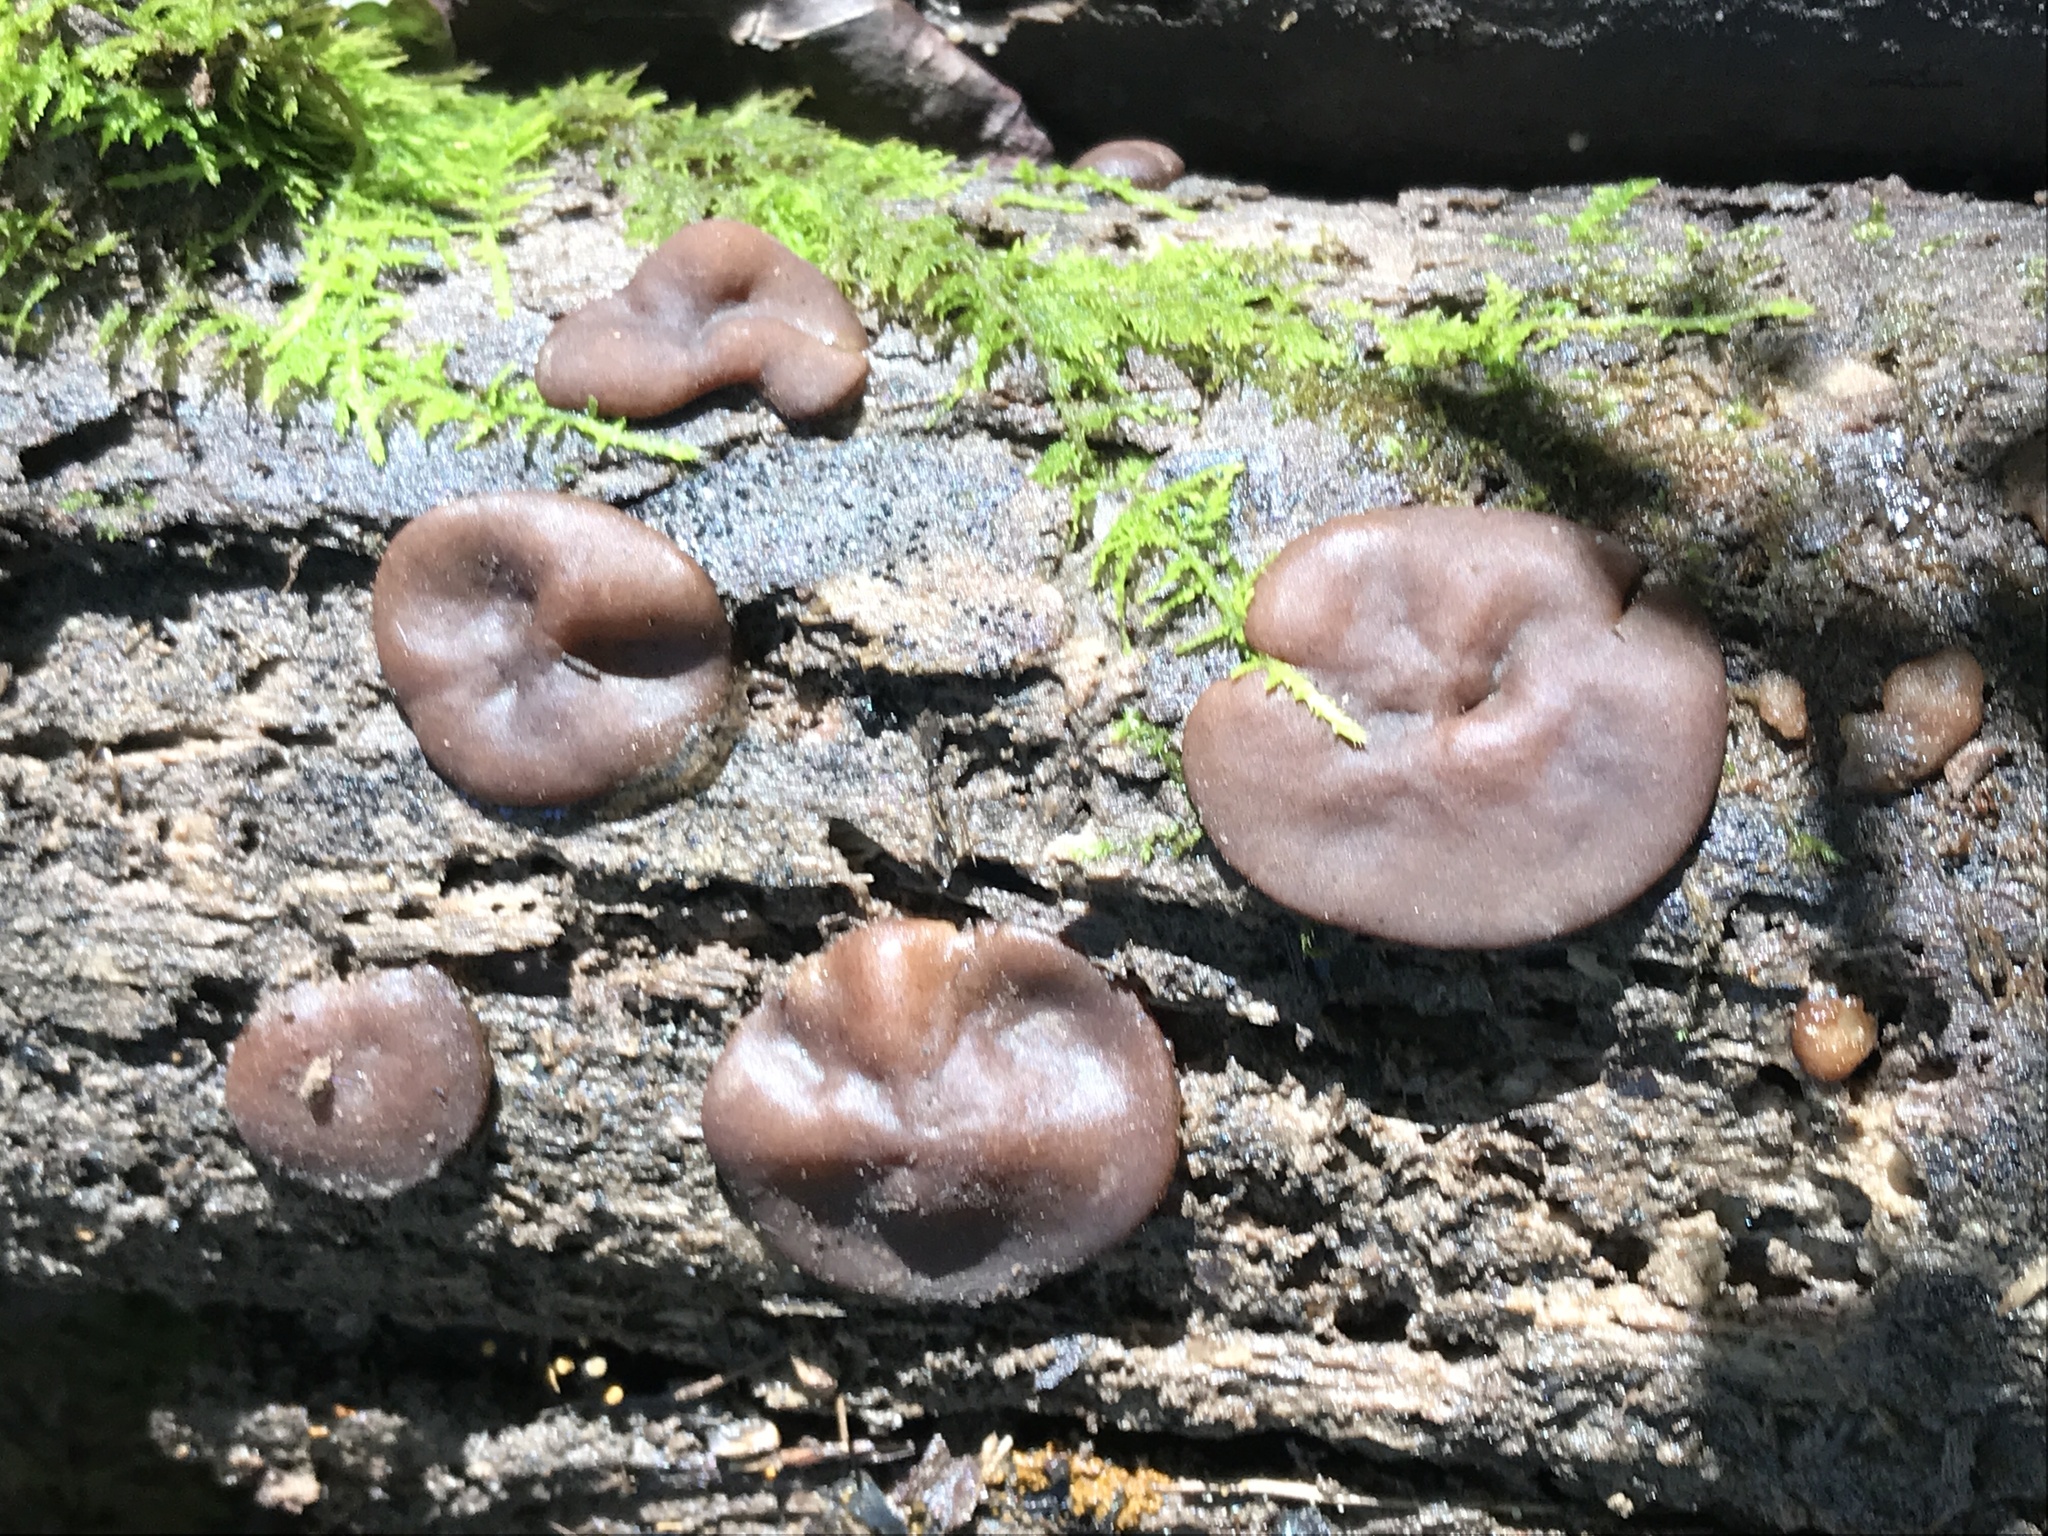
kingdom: Fungi
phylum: Ascomycota
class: Pezizomycetes
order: Pezizales
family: Pezizaceae
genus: Pachyella
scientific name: Pachyella clypeata
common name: Copper penny fungus
